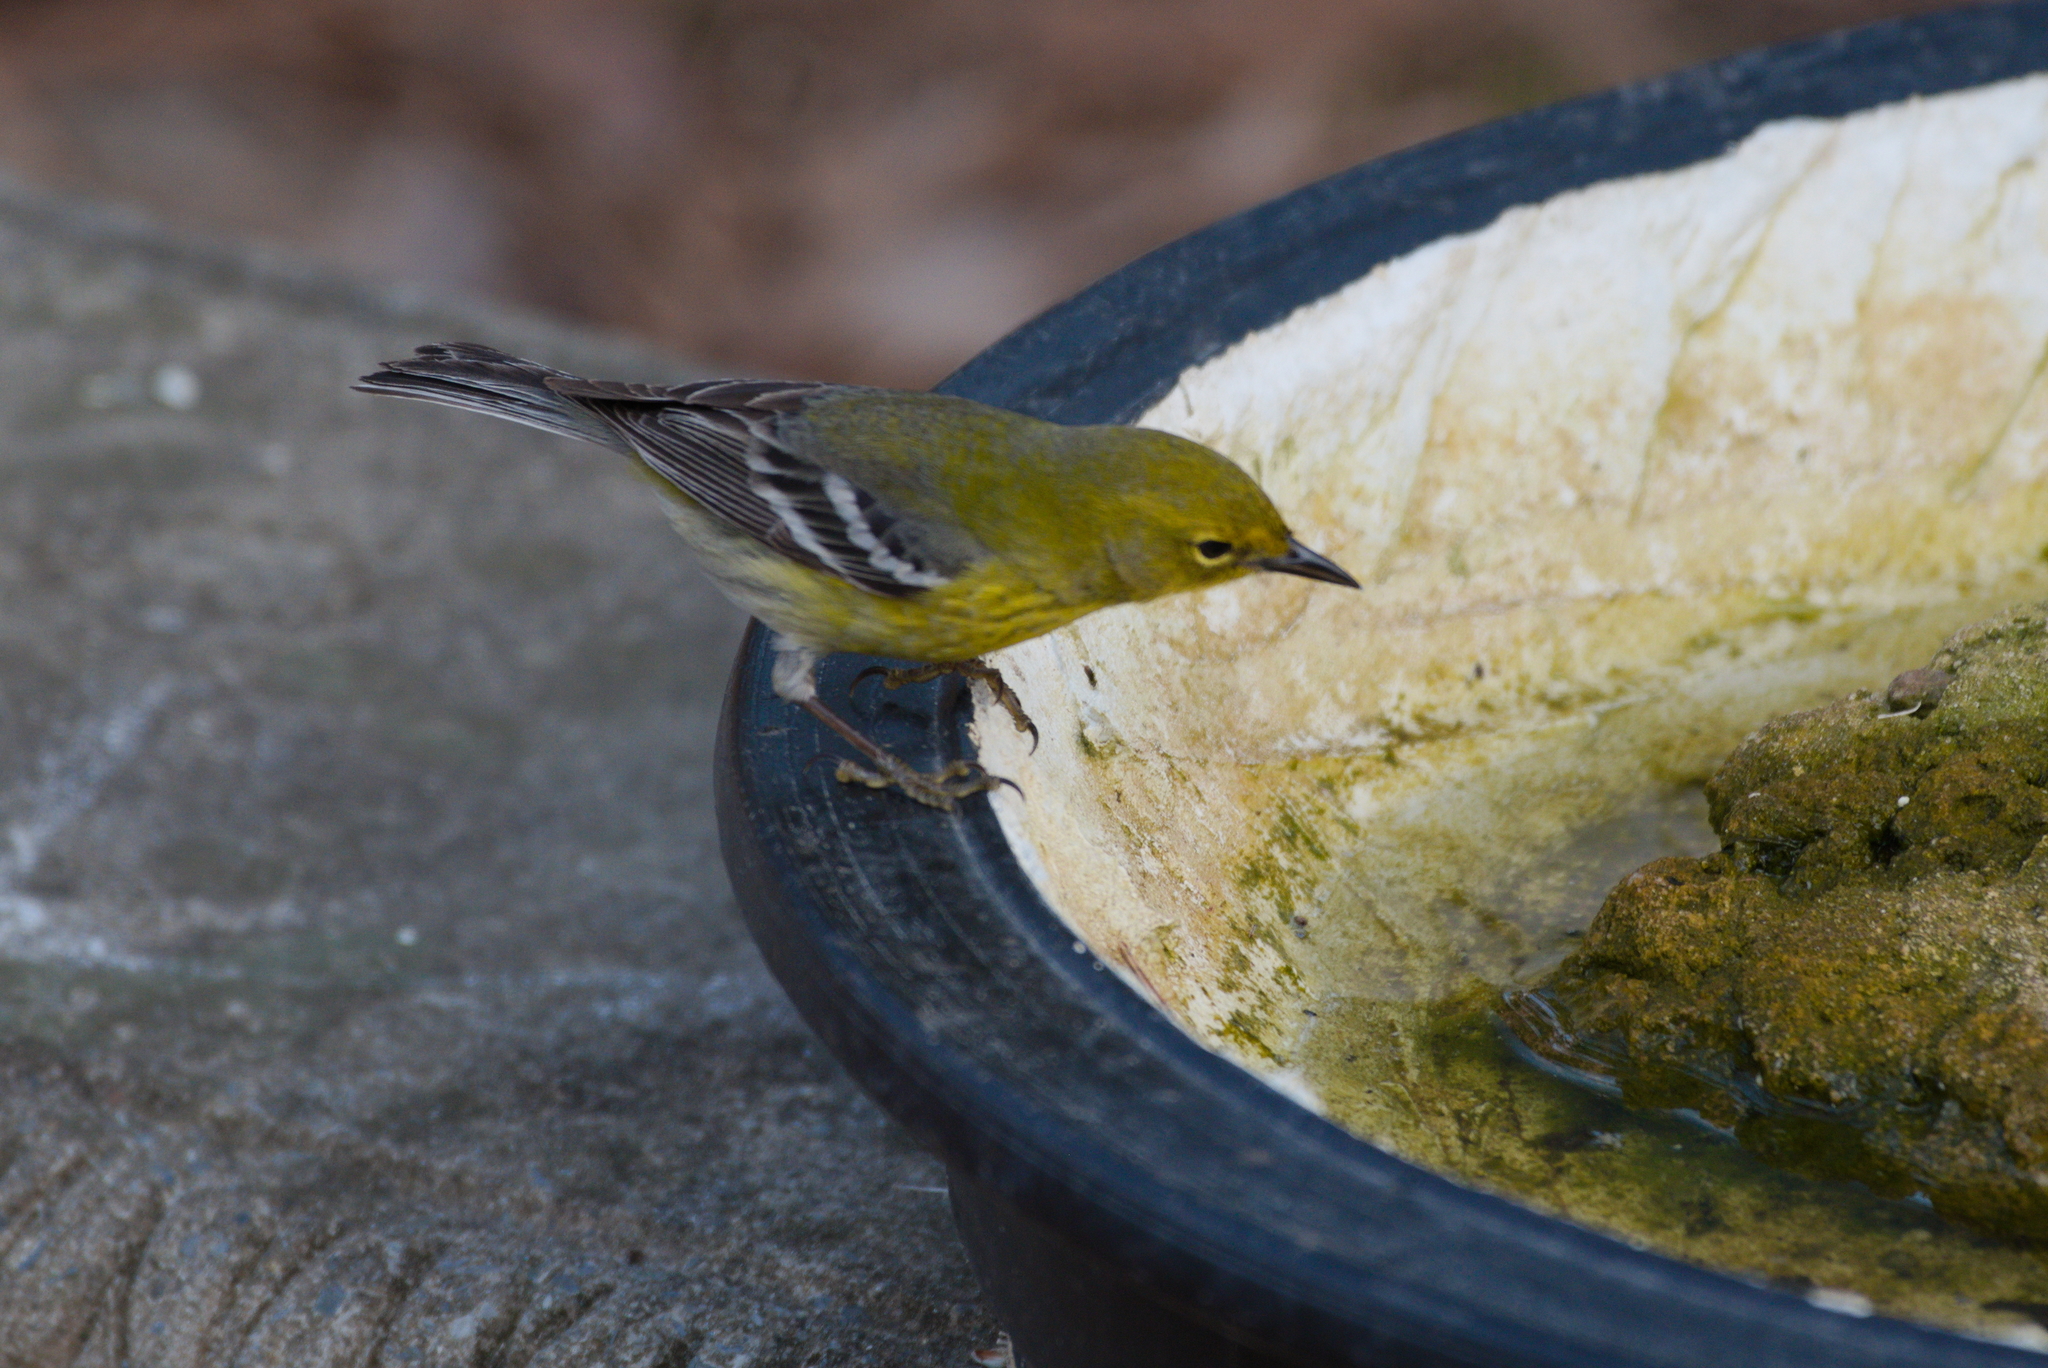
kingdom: Animalia
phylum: Chordata
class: Aves
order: Passeriformes
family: Parulidae
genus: Setophaga
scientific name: Setophaga pinus
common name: Pine warbler
